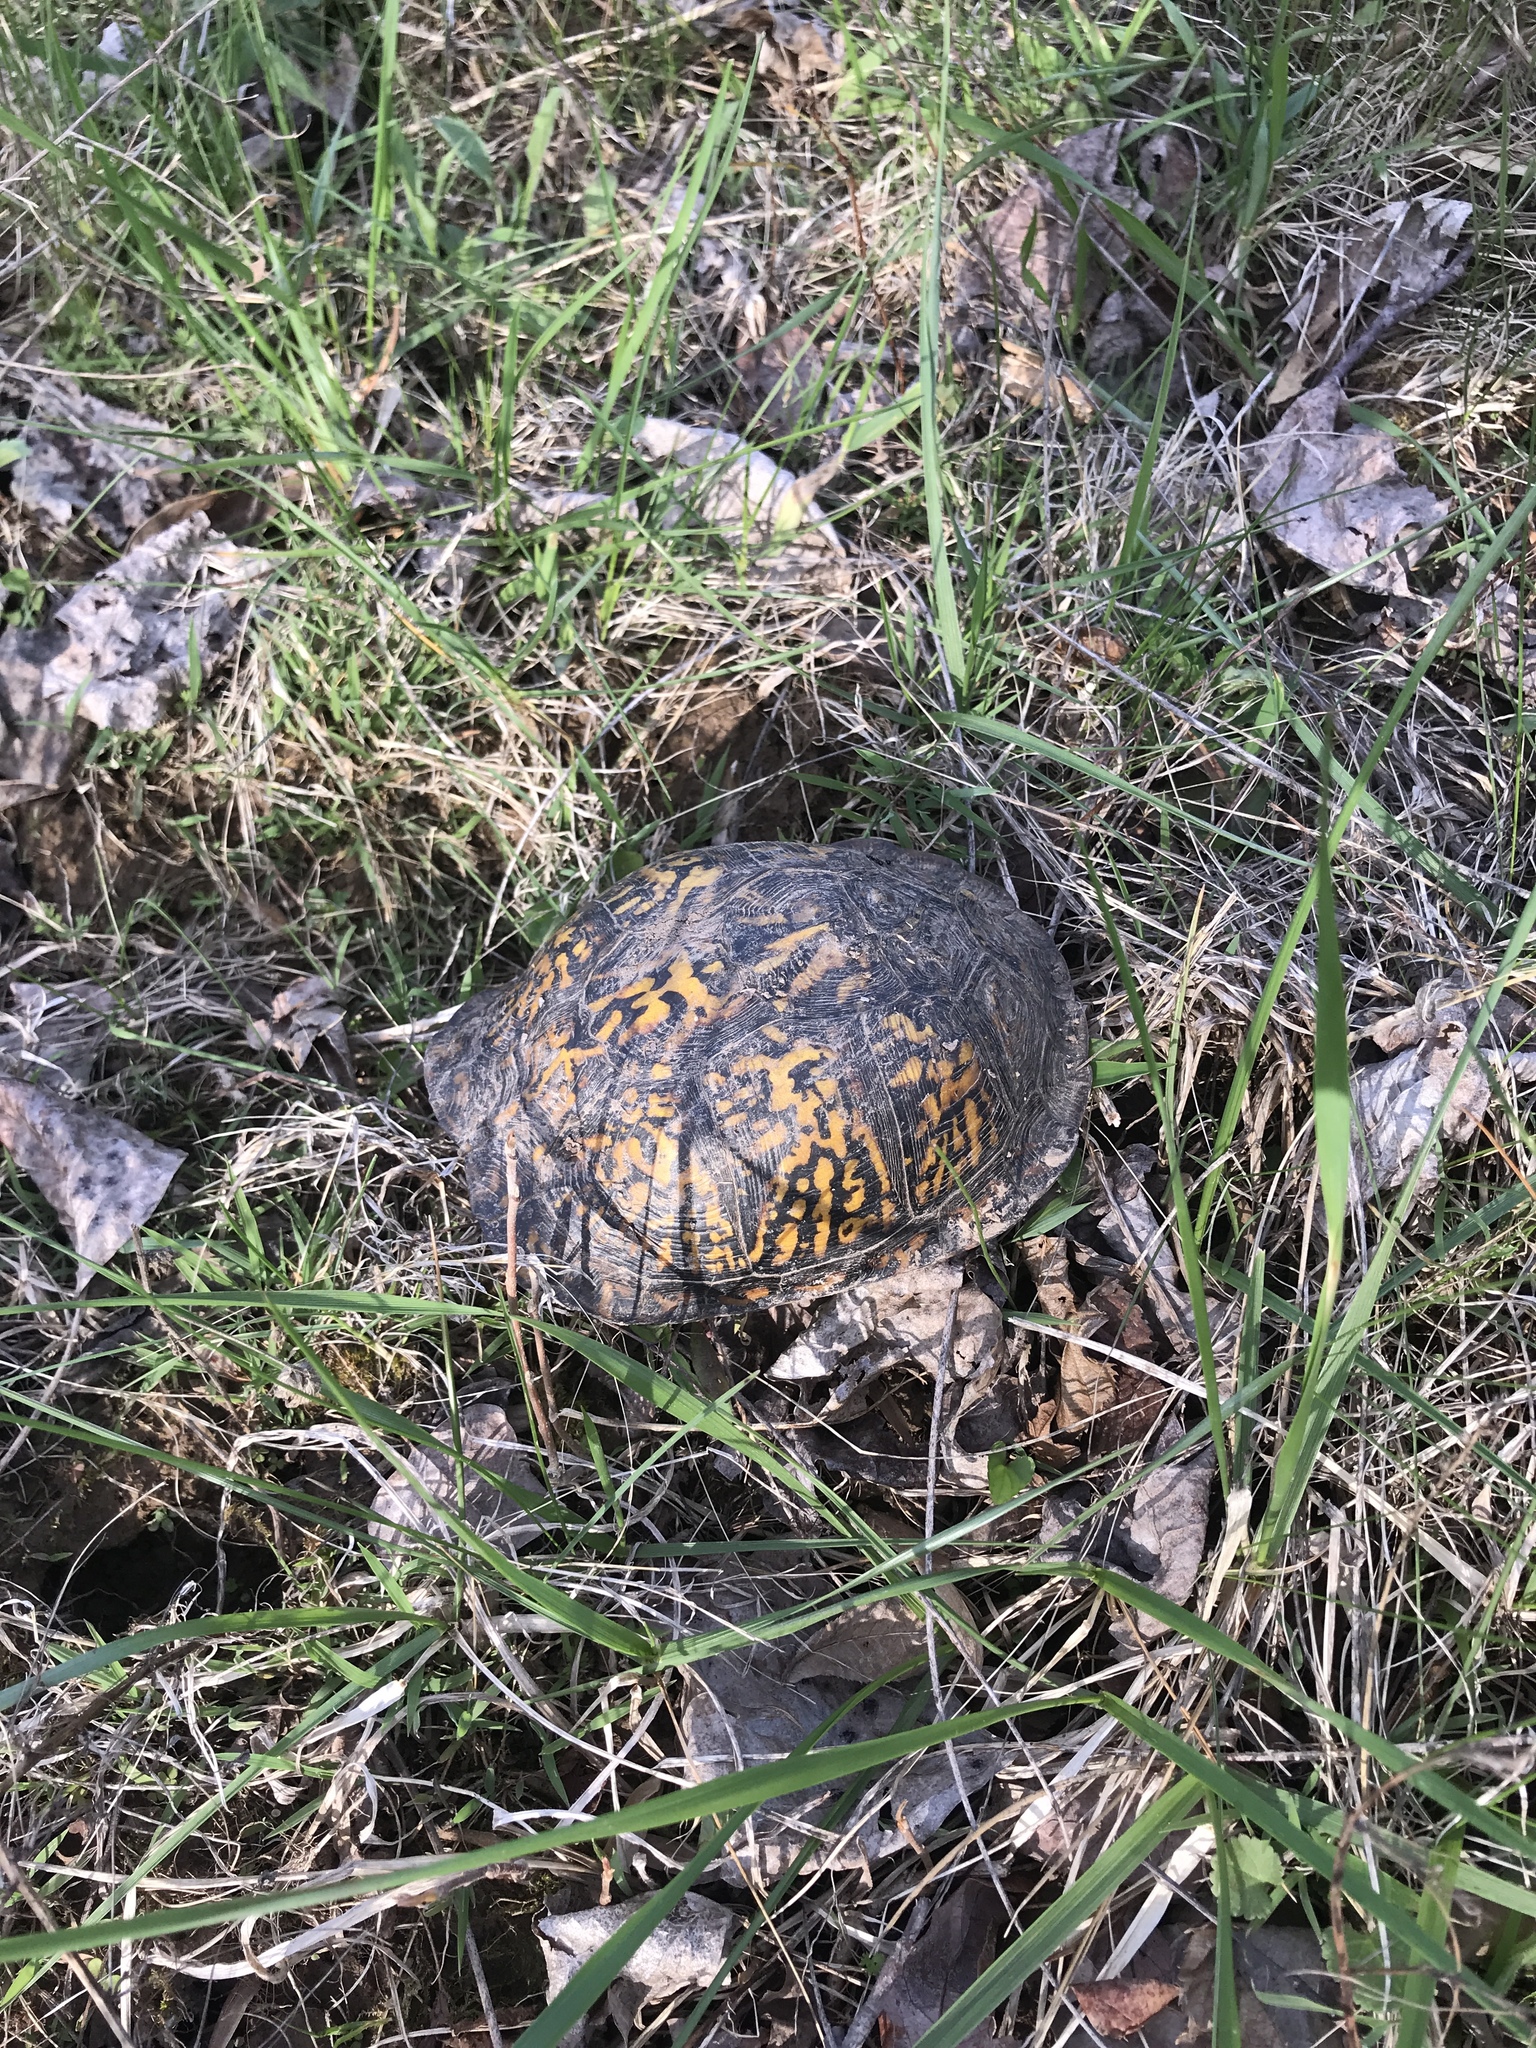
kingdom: Animalia
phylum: Chordata
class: Testudines
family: Emydidae
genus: Terrapene
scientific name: Terrapene carolina
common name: Common box turtle
